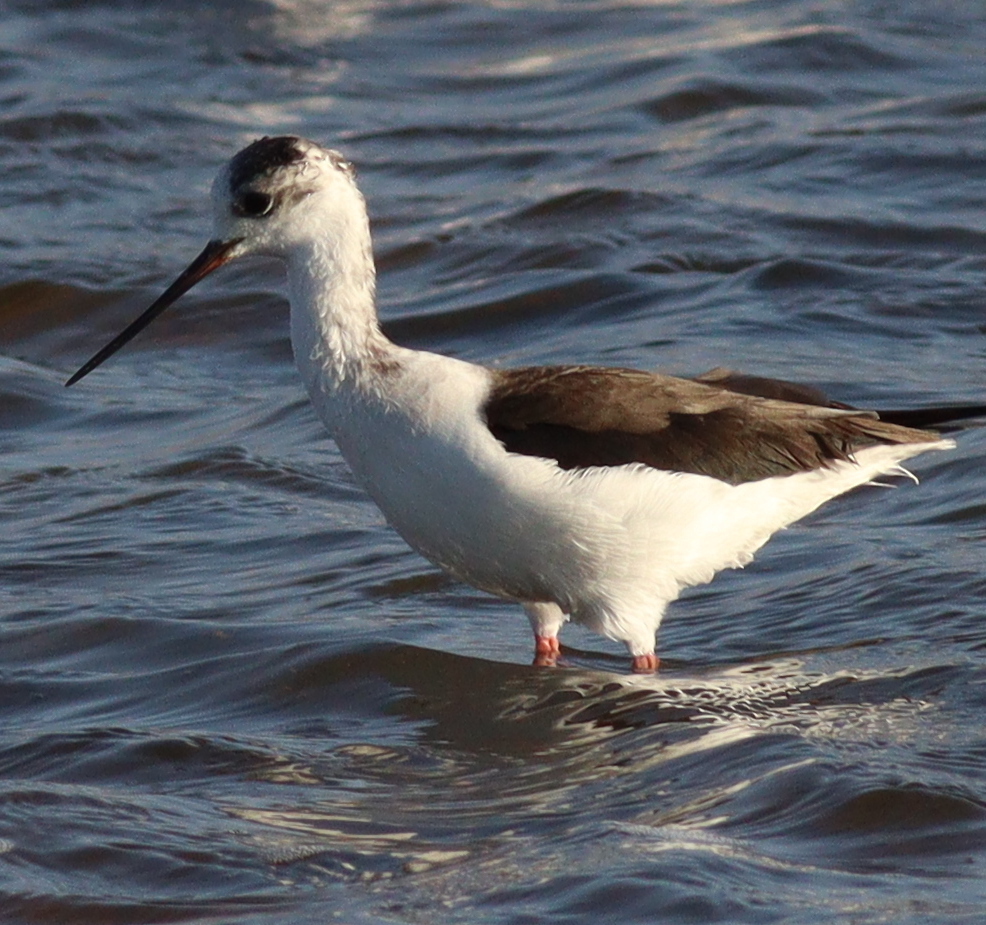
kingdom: Animalia
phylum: Chordata
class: Aves
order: Charadriiformes
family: Recurvirostridae
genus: Himantopus
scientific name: Himantopus himantopus
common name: Black-winged stilt
